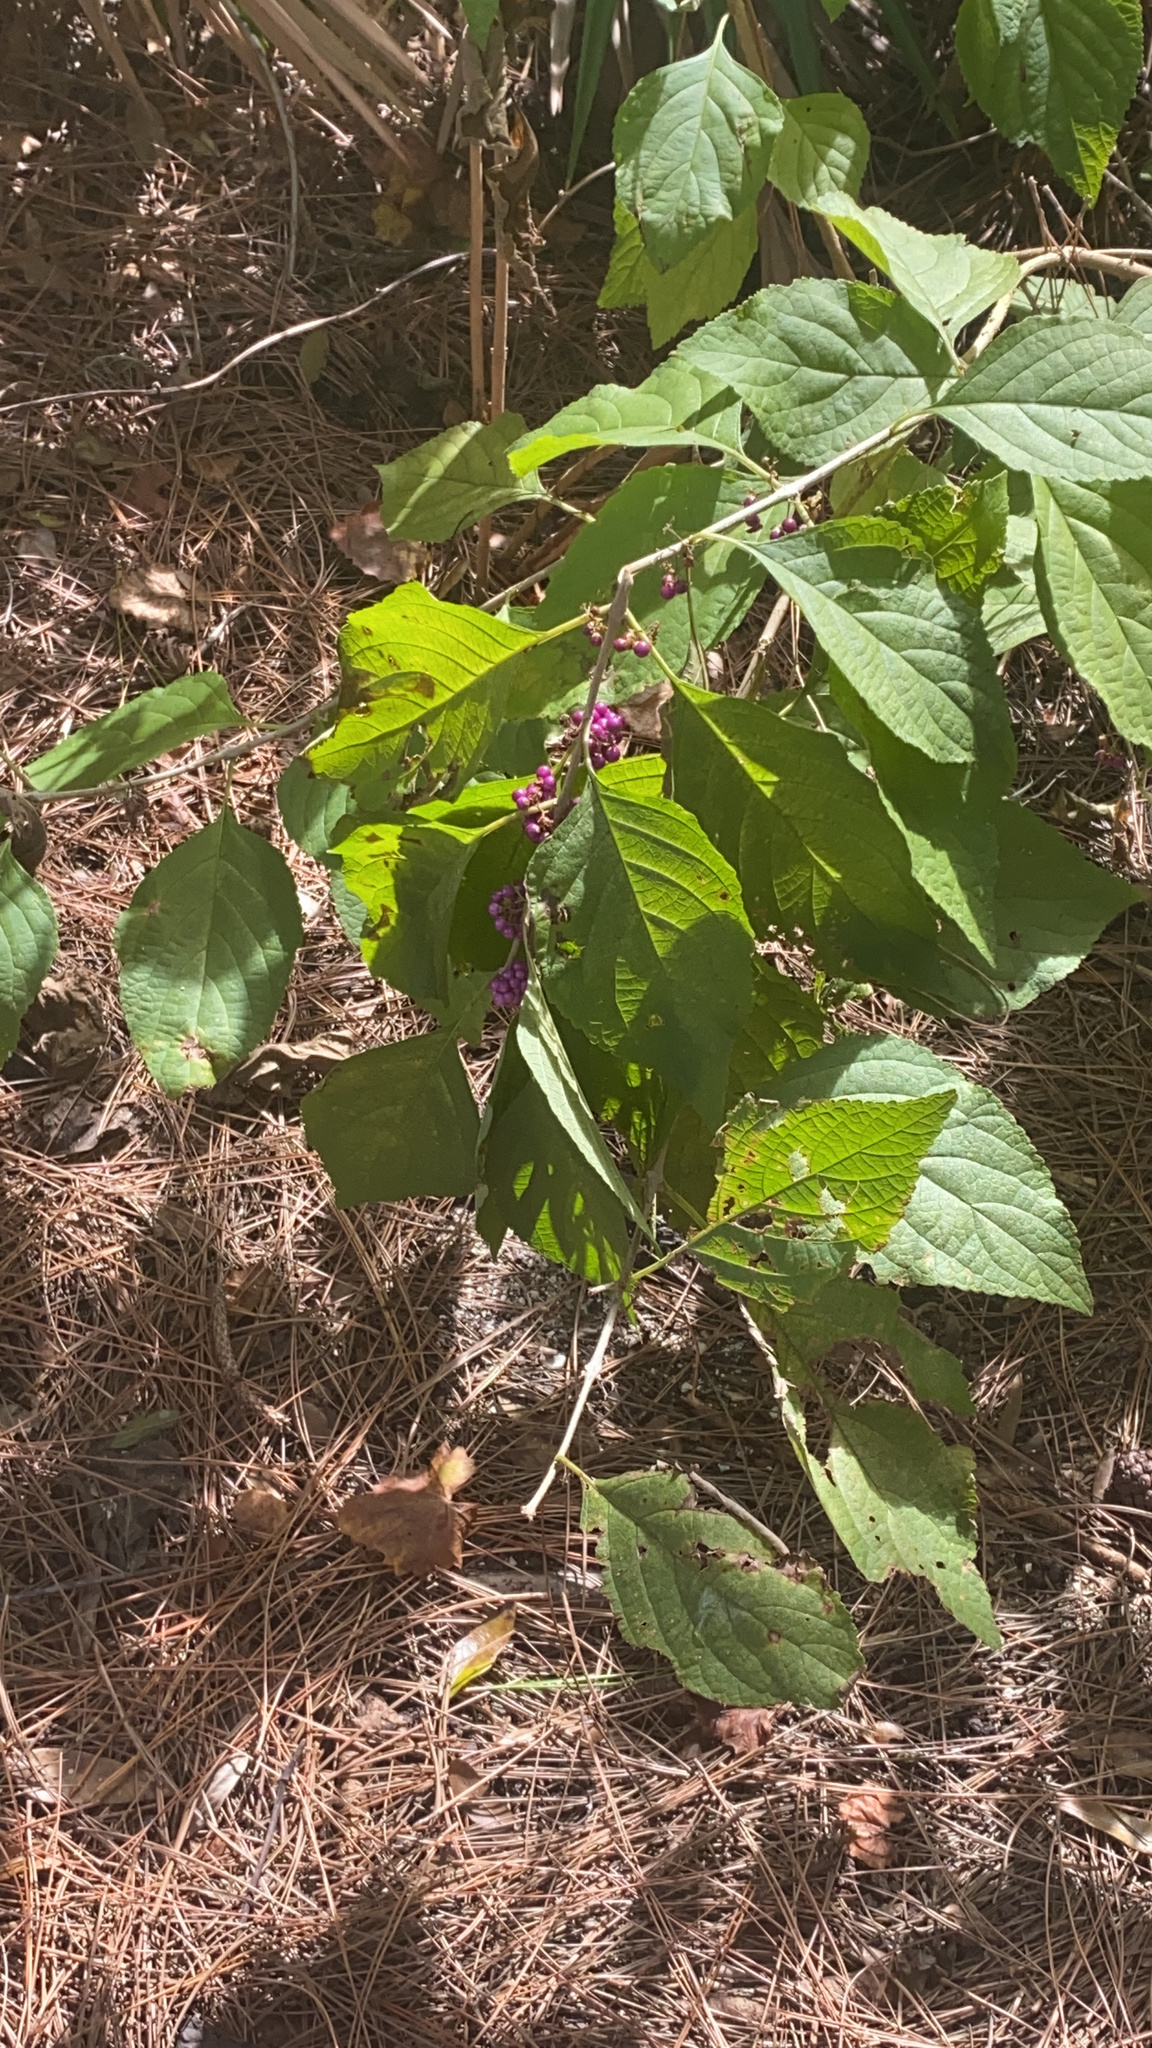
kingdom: Plantae
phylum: Tracheophyta
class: Magnoliopsida
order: Lamiales
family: Lamiaceae
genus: Callicarpa
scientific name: Callicarpa americana
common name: American beautyberry
